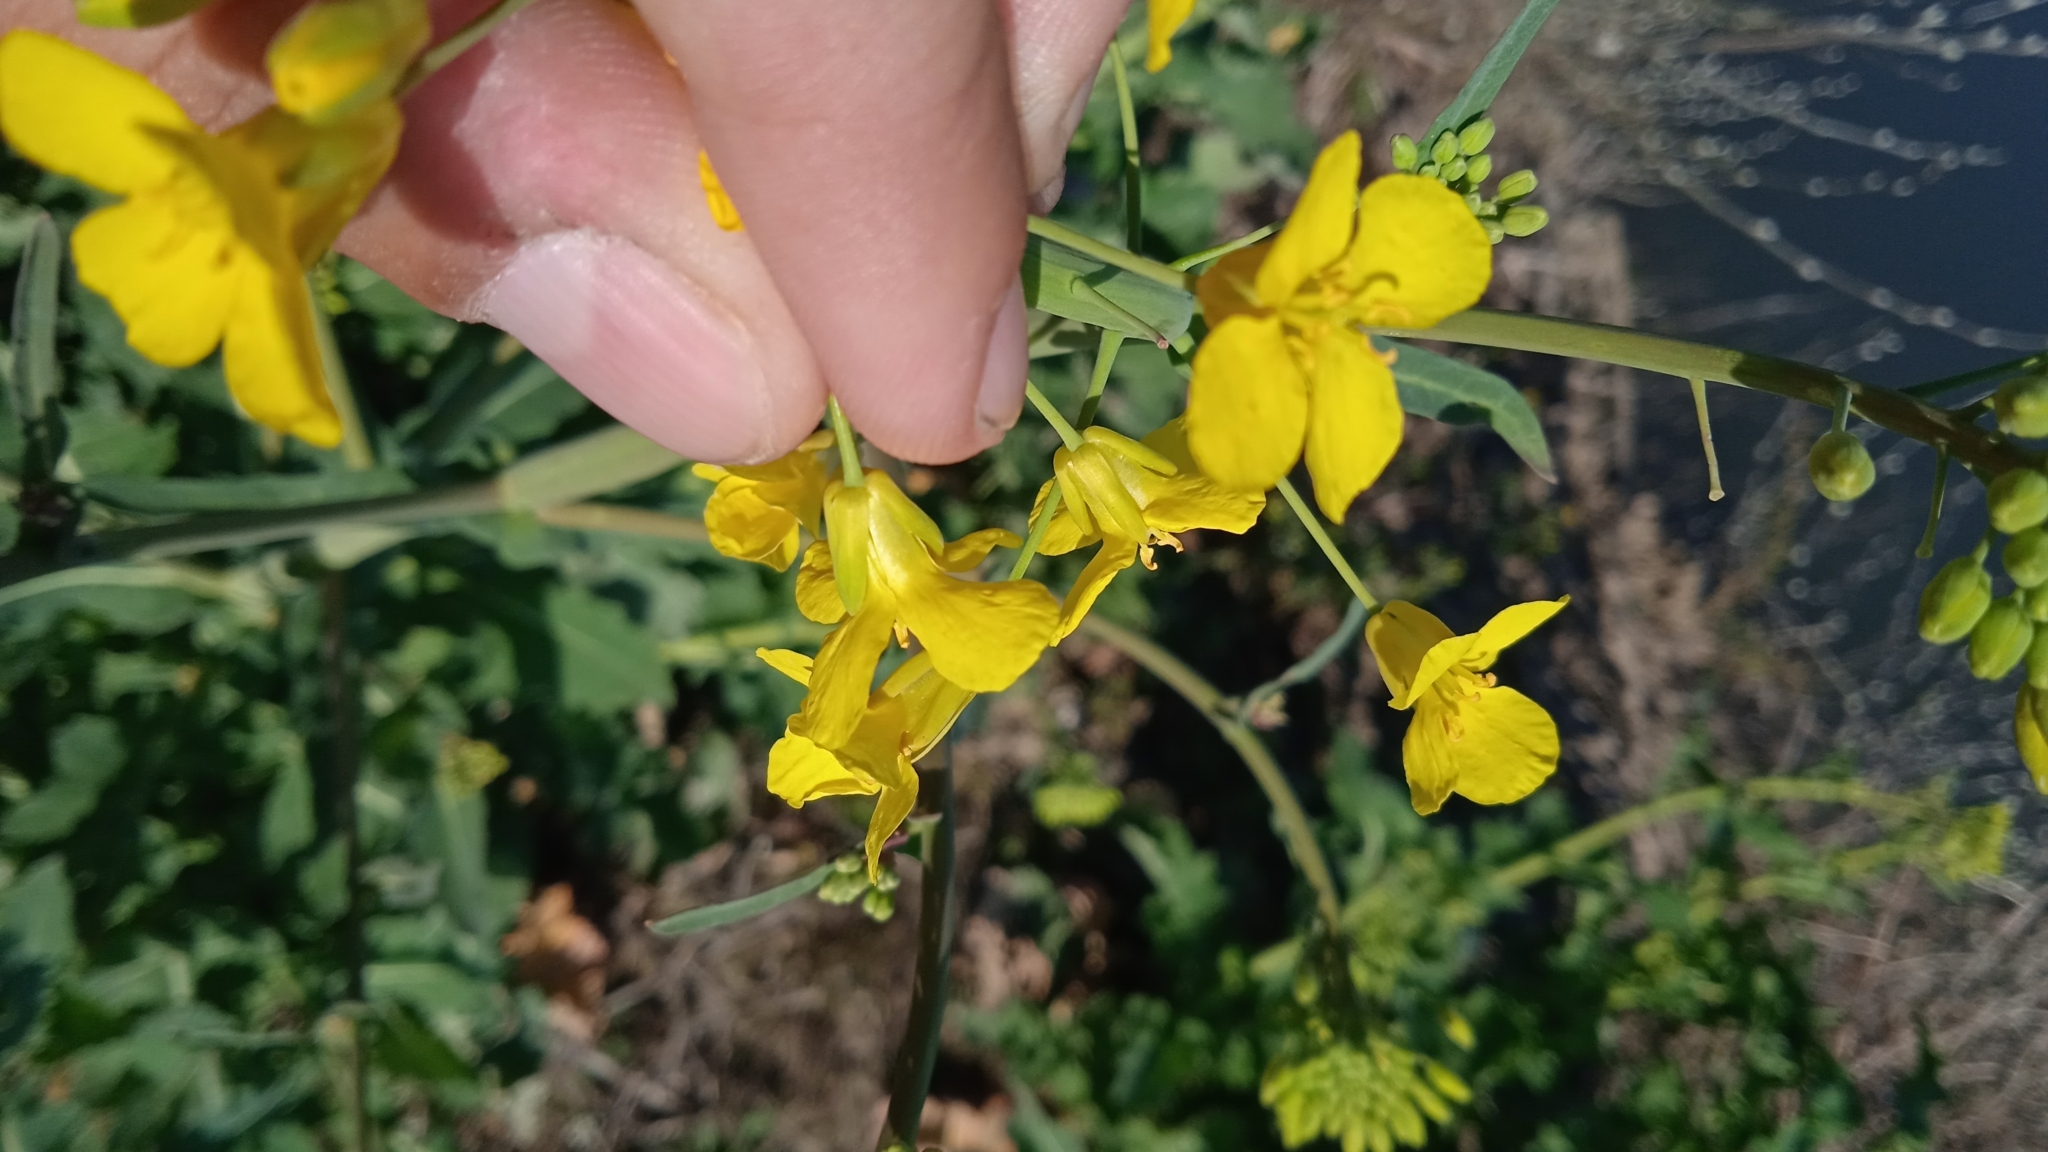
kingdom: Plantae
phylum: Tracheophyta
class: Magnoliopsida
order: Brassicales
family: Brassicaceae
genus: Brassica
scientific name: Brassica napus
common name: Rape
